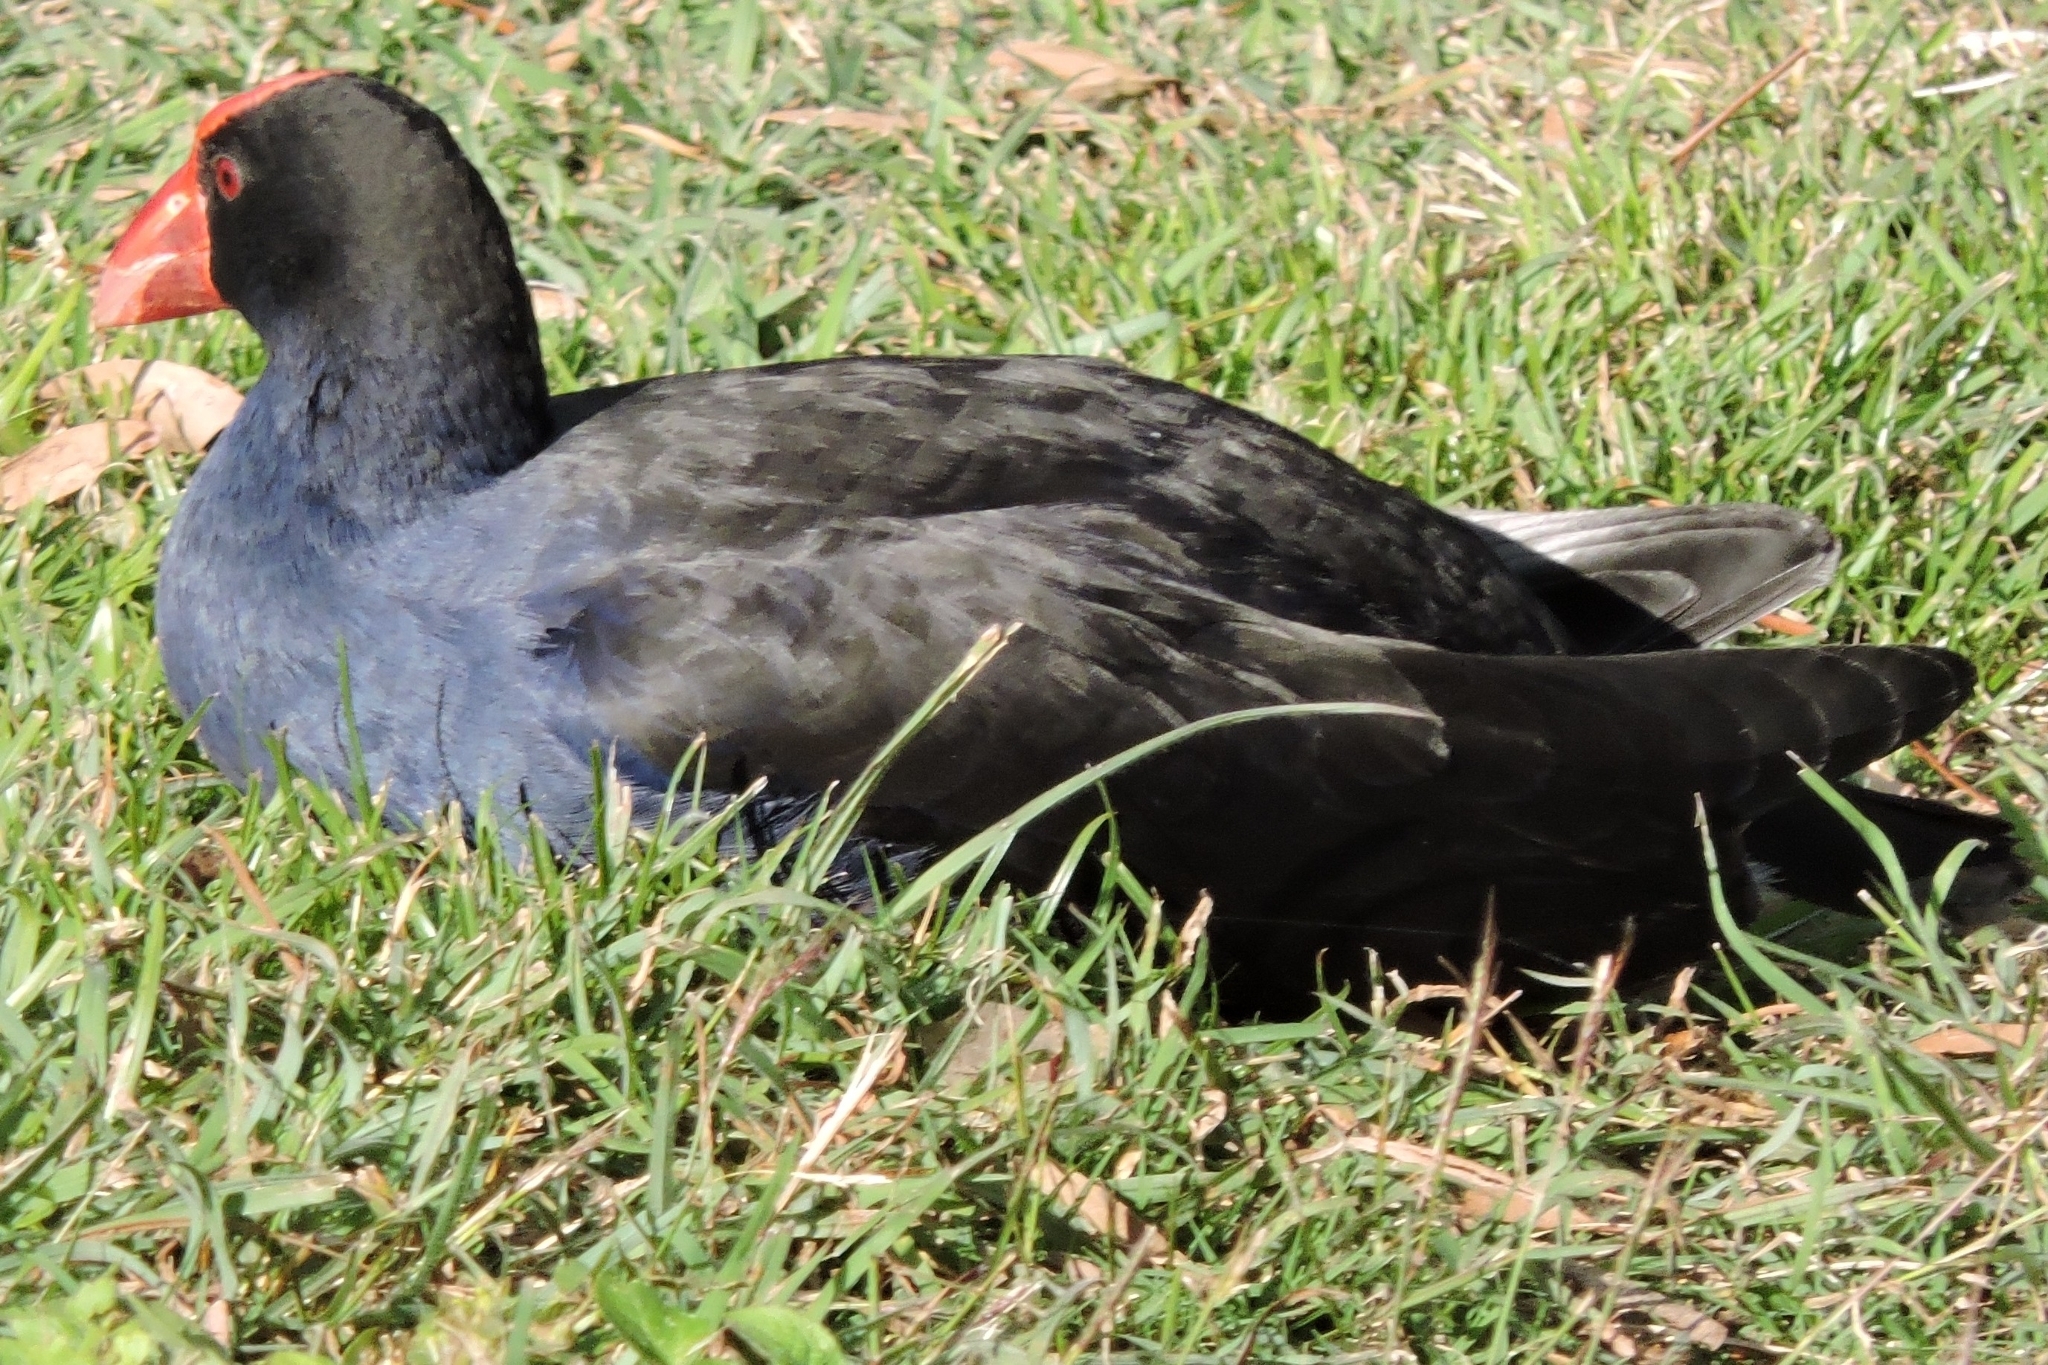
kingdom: Animalia
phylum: Chordata
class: Aves
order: Gruiformes
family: Rallidae
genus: Porphyrio
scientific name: Porphyrio melanotus
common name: Australasian swamphen
